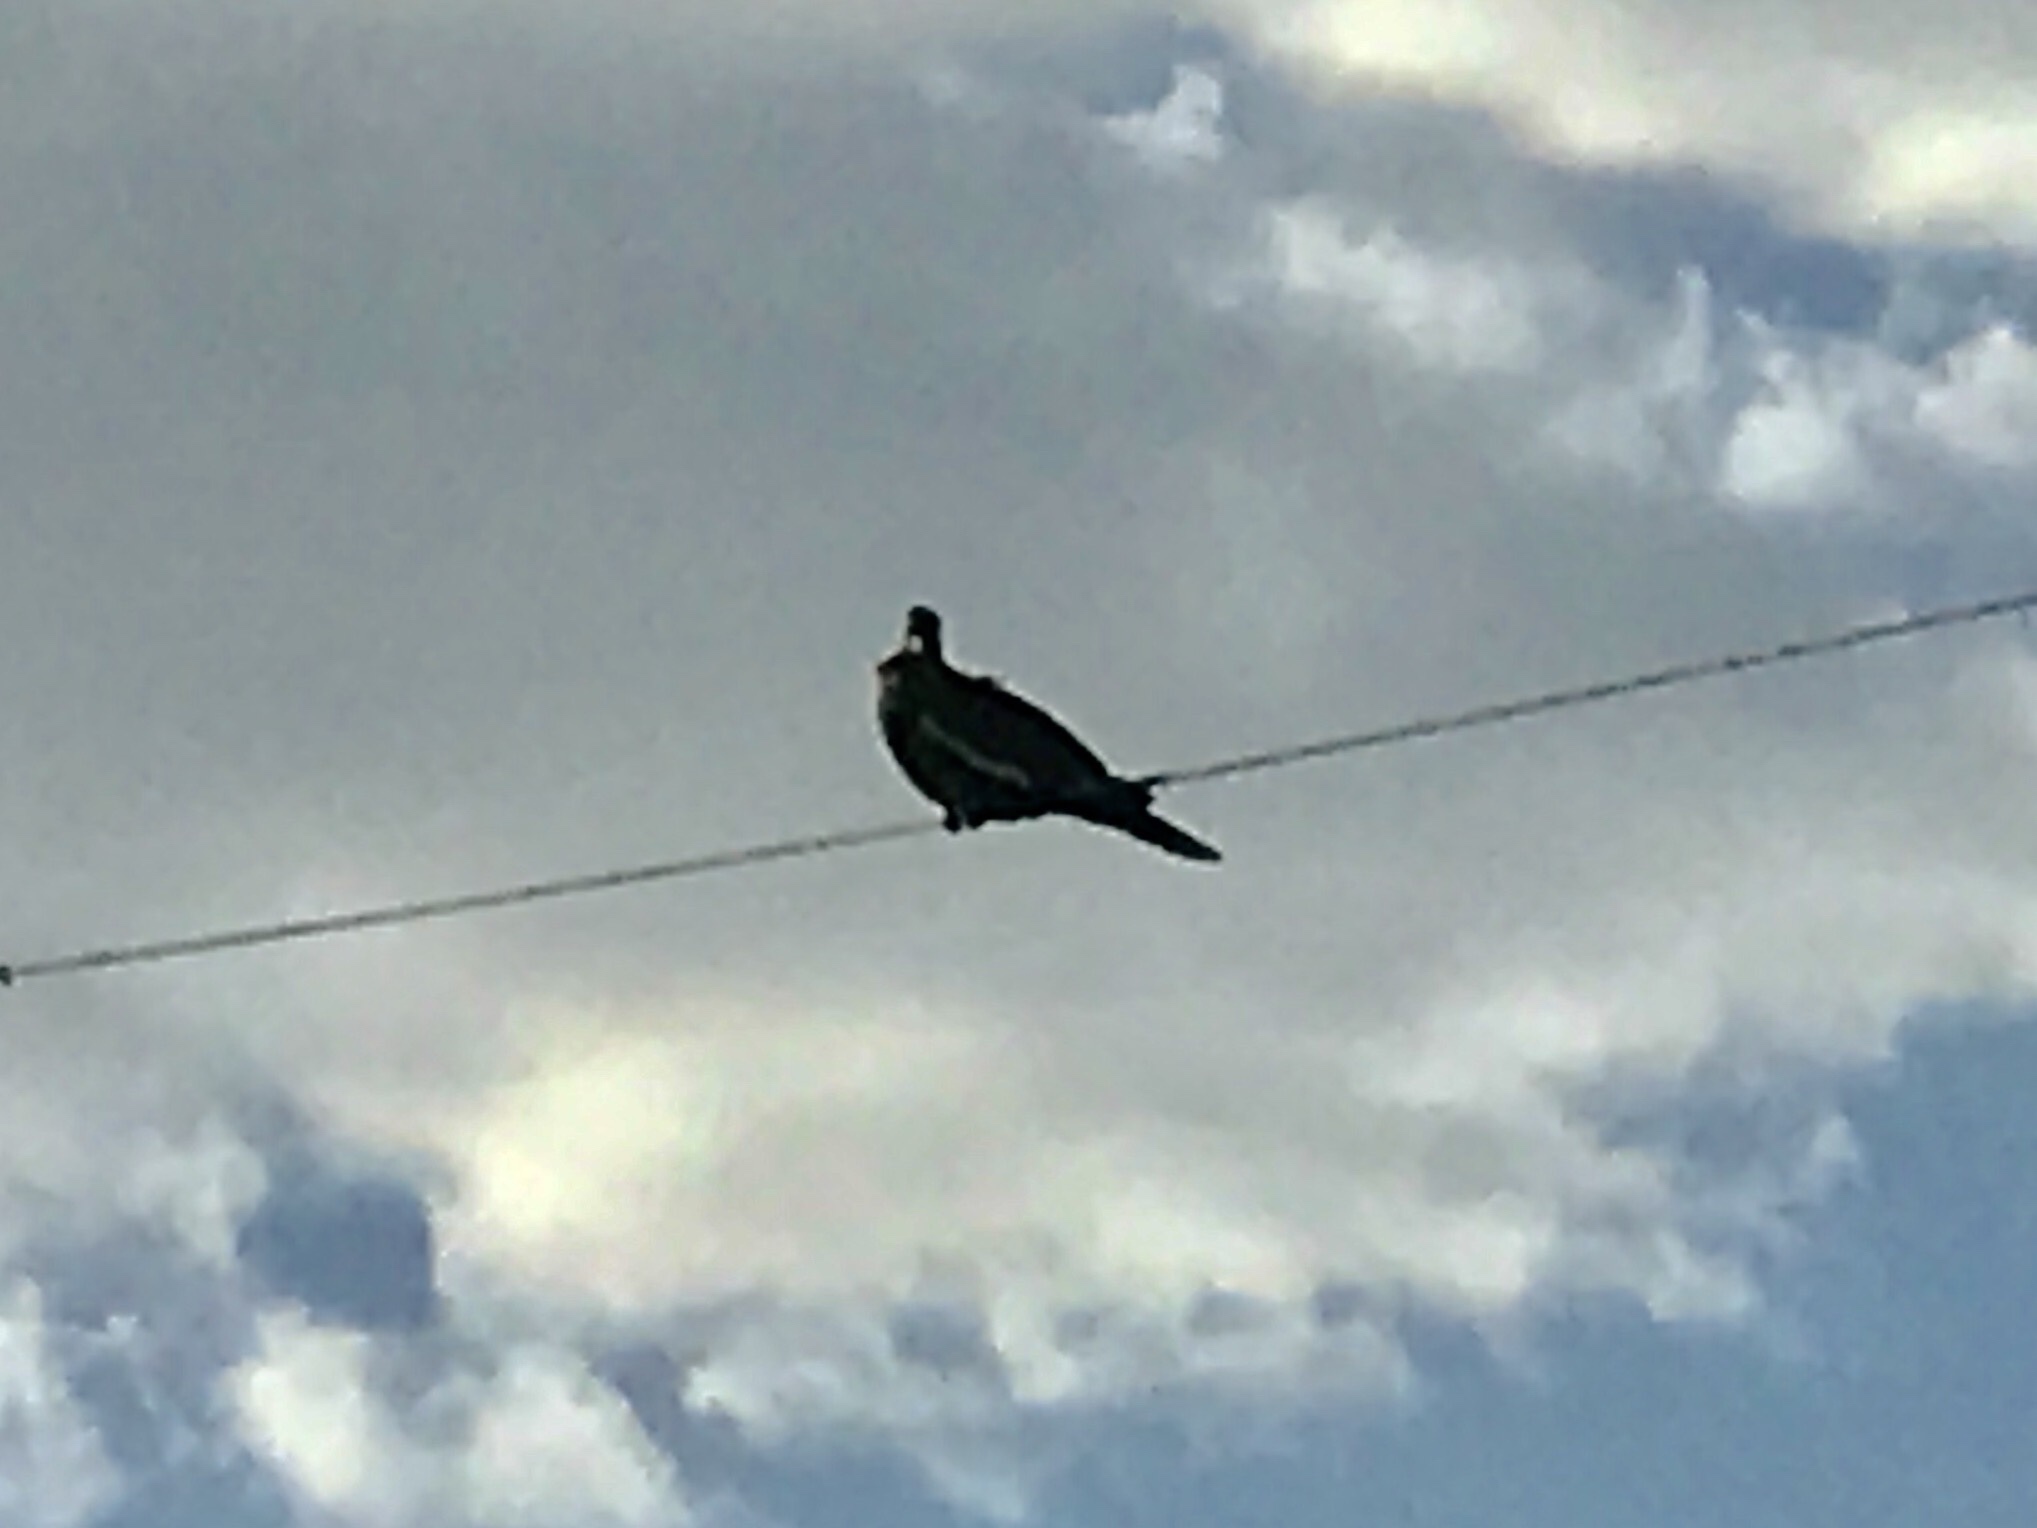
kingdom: Animalia
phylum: Chordata
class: Aves
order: Columbiformes
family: Columbidae
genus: Zenaida
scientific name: Zenaida asiatica
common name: White-winged dove
